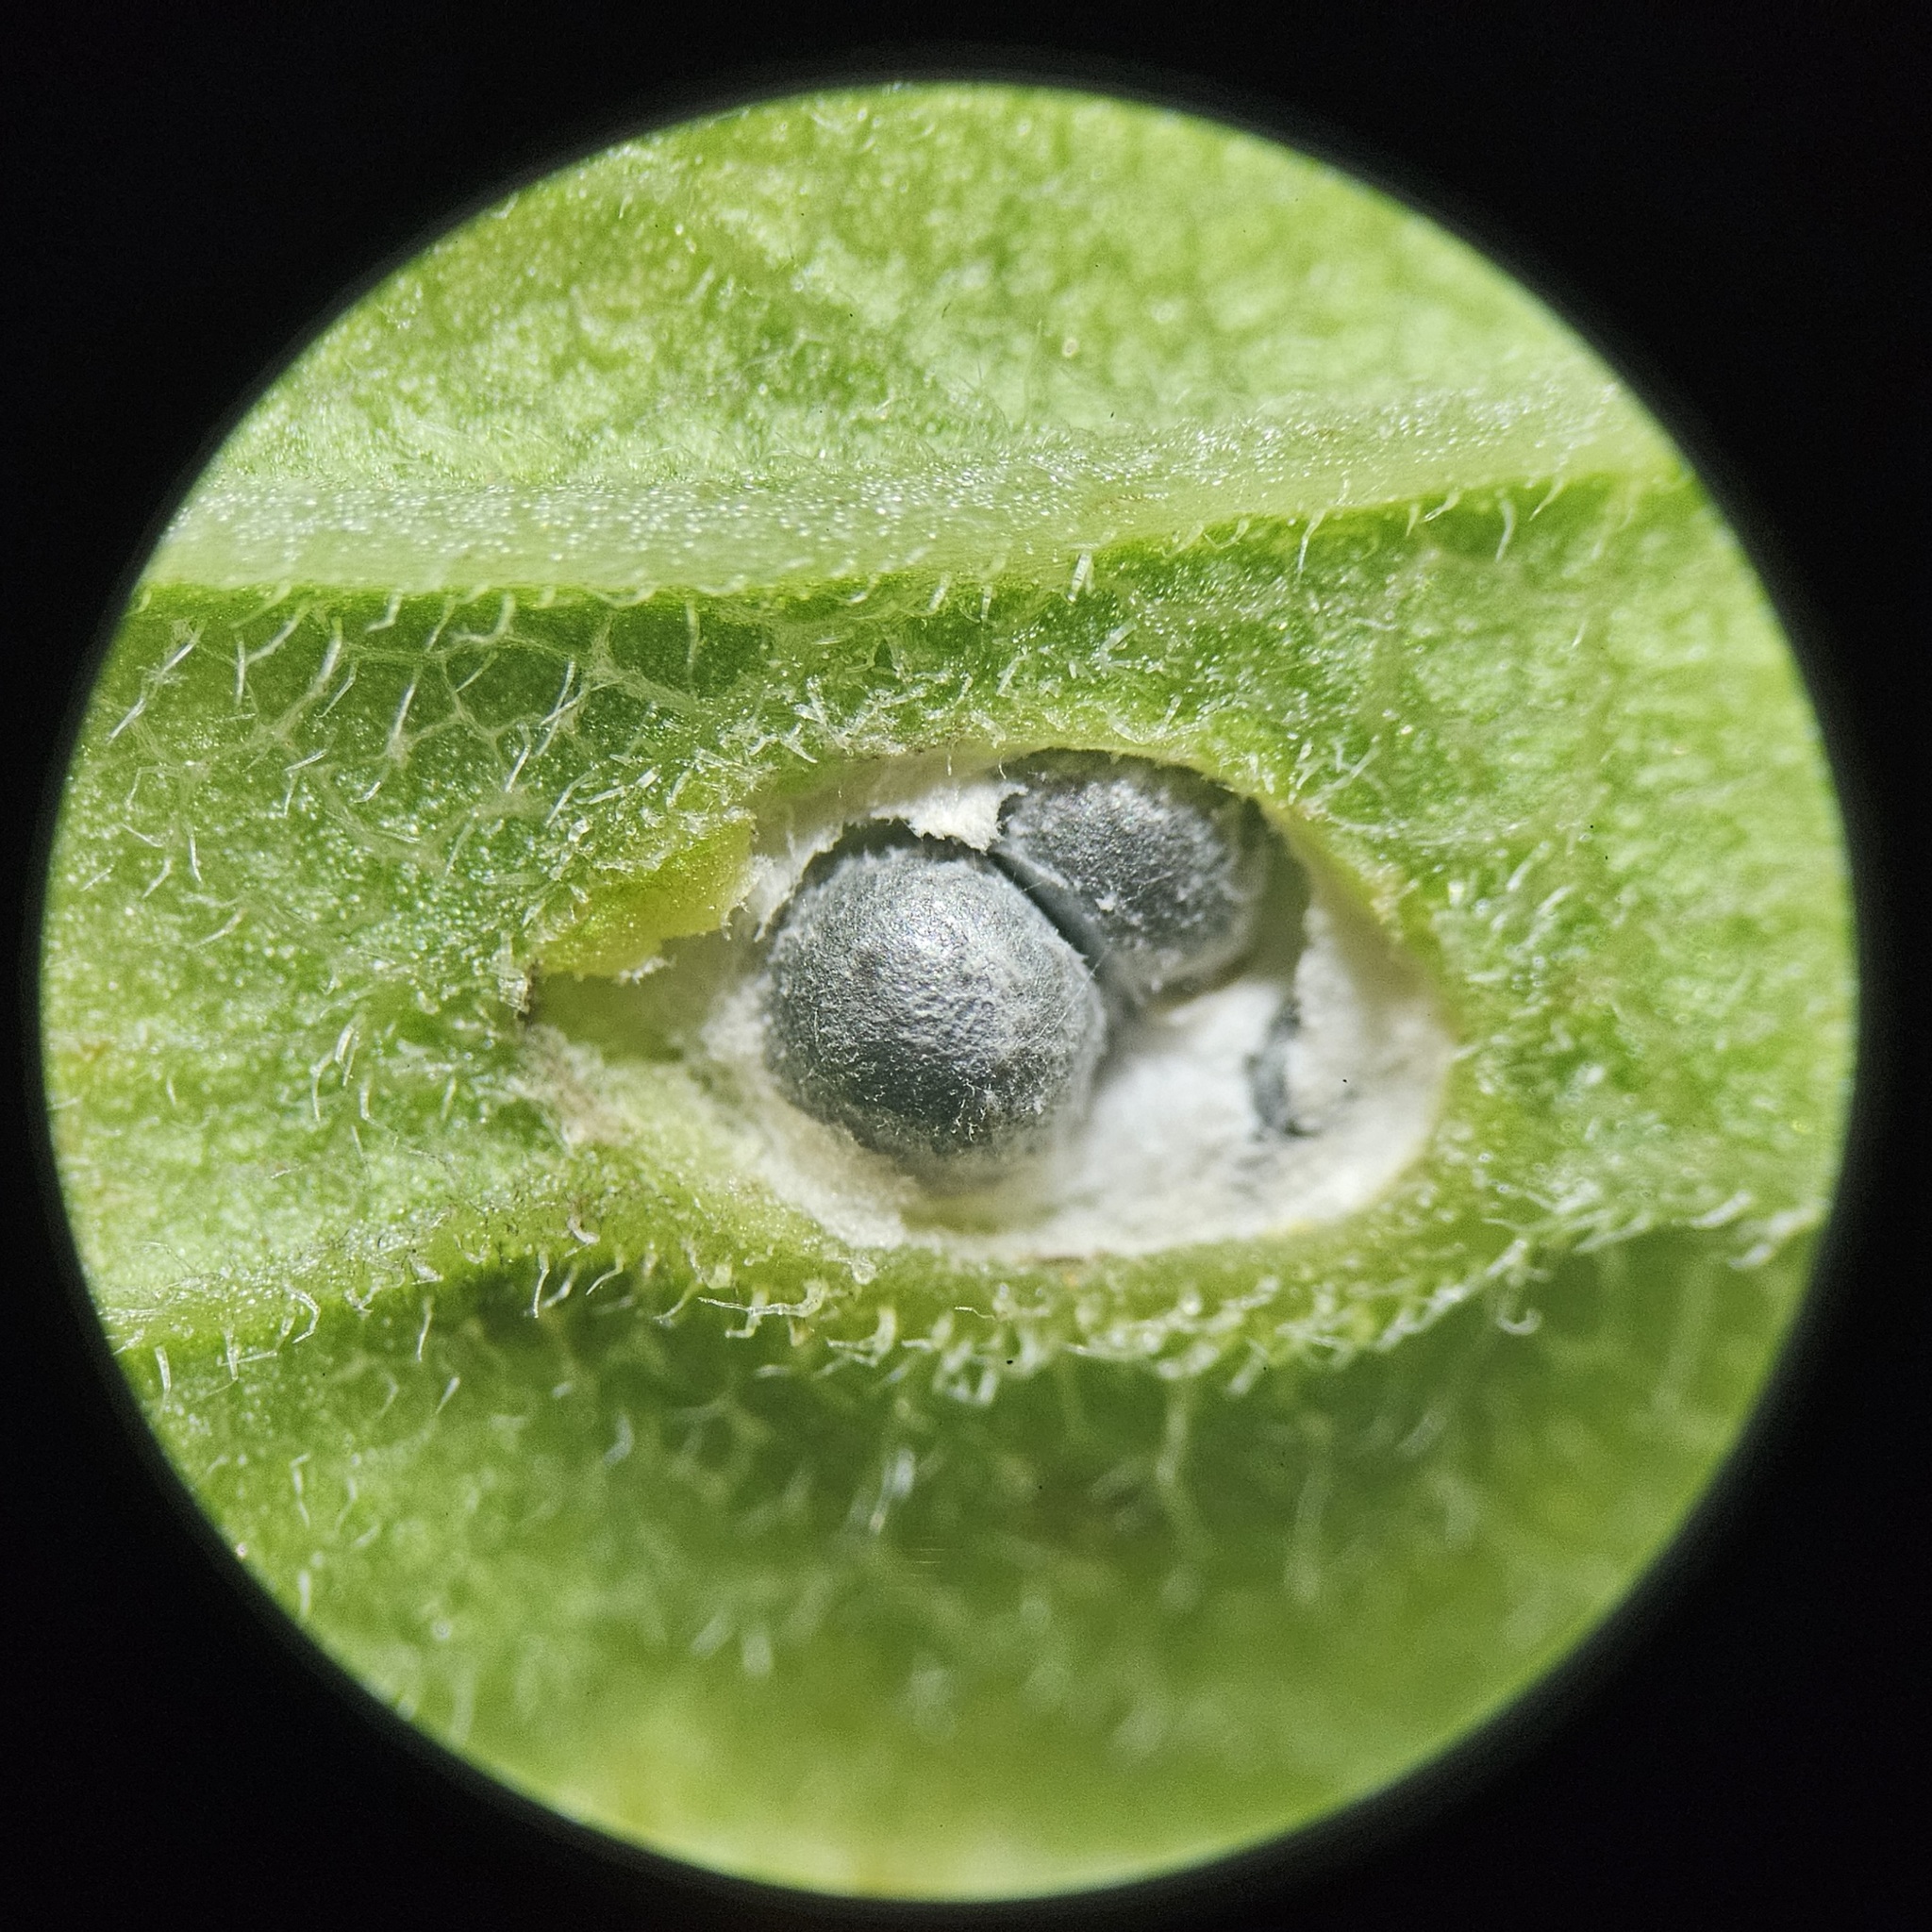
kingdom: Animalia
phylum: Arthropoda
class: Insecta
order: Diptera
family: Cecidomyiidae
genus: Asphondylia
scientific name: Asphondylia solidaginis
